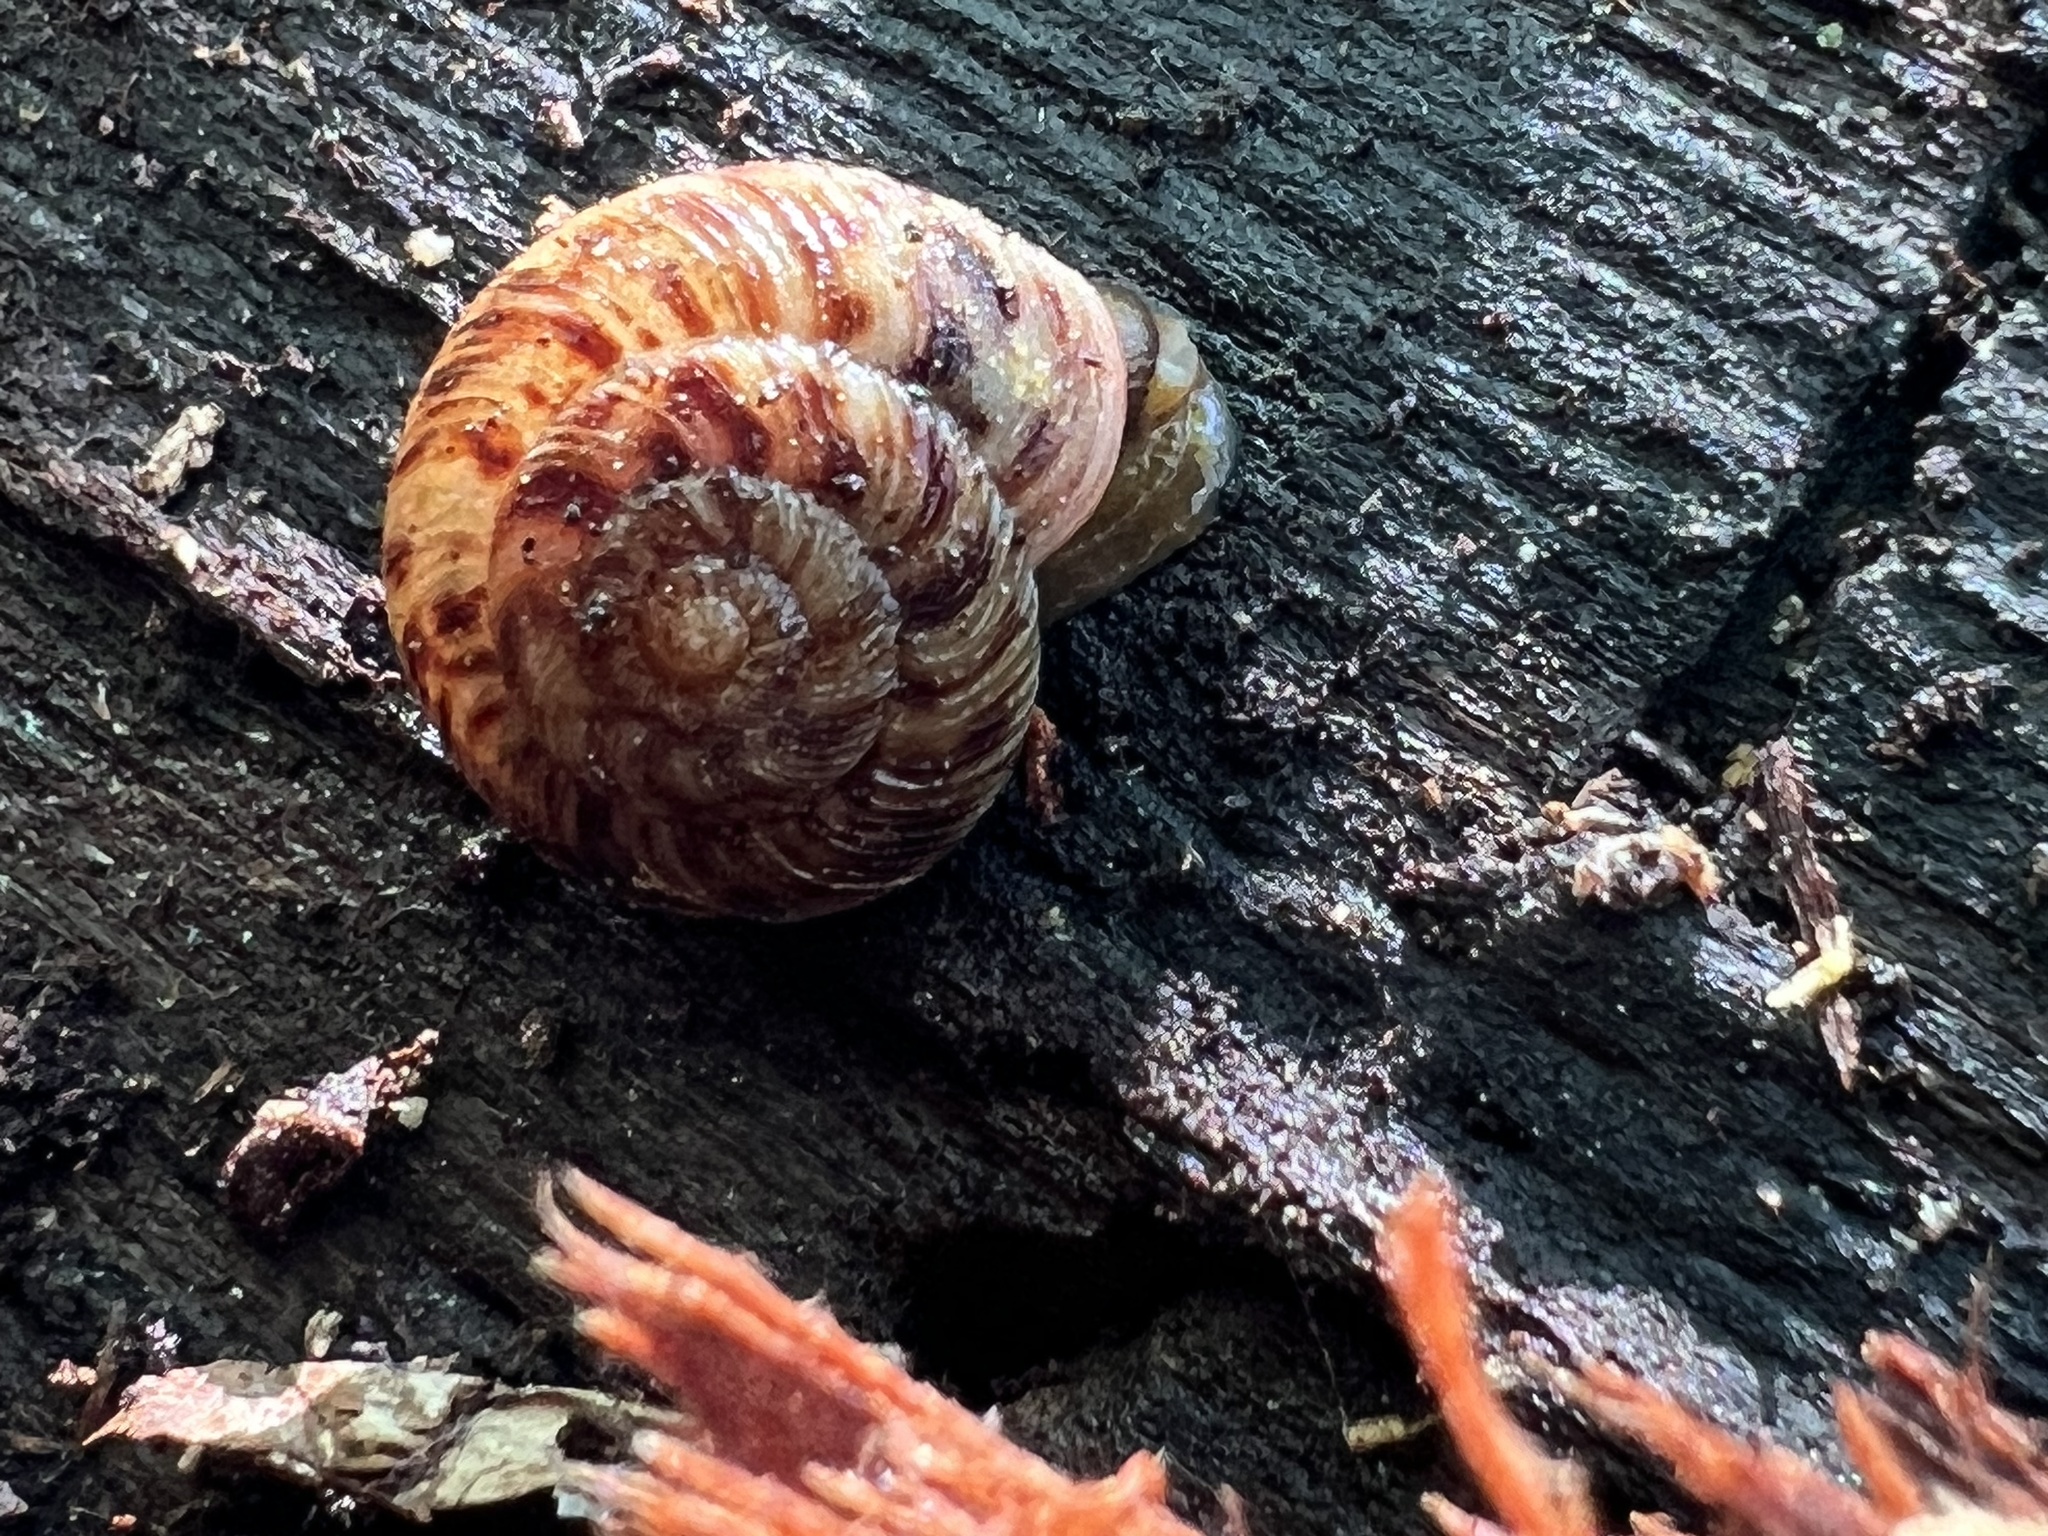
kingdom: Animalia
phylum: Mollusca
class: Gastropoda
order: Stylommatophora
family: Discidae
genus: Anguispira
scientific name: Anguispira alternata
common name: Flamed tigersnail
